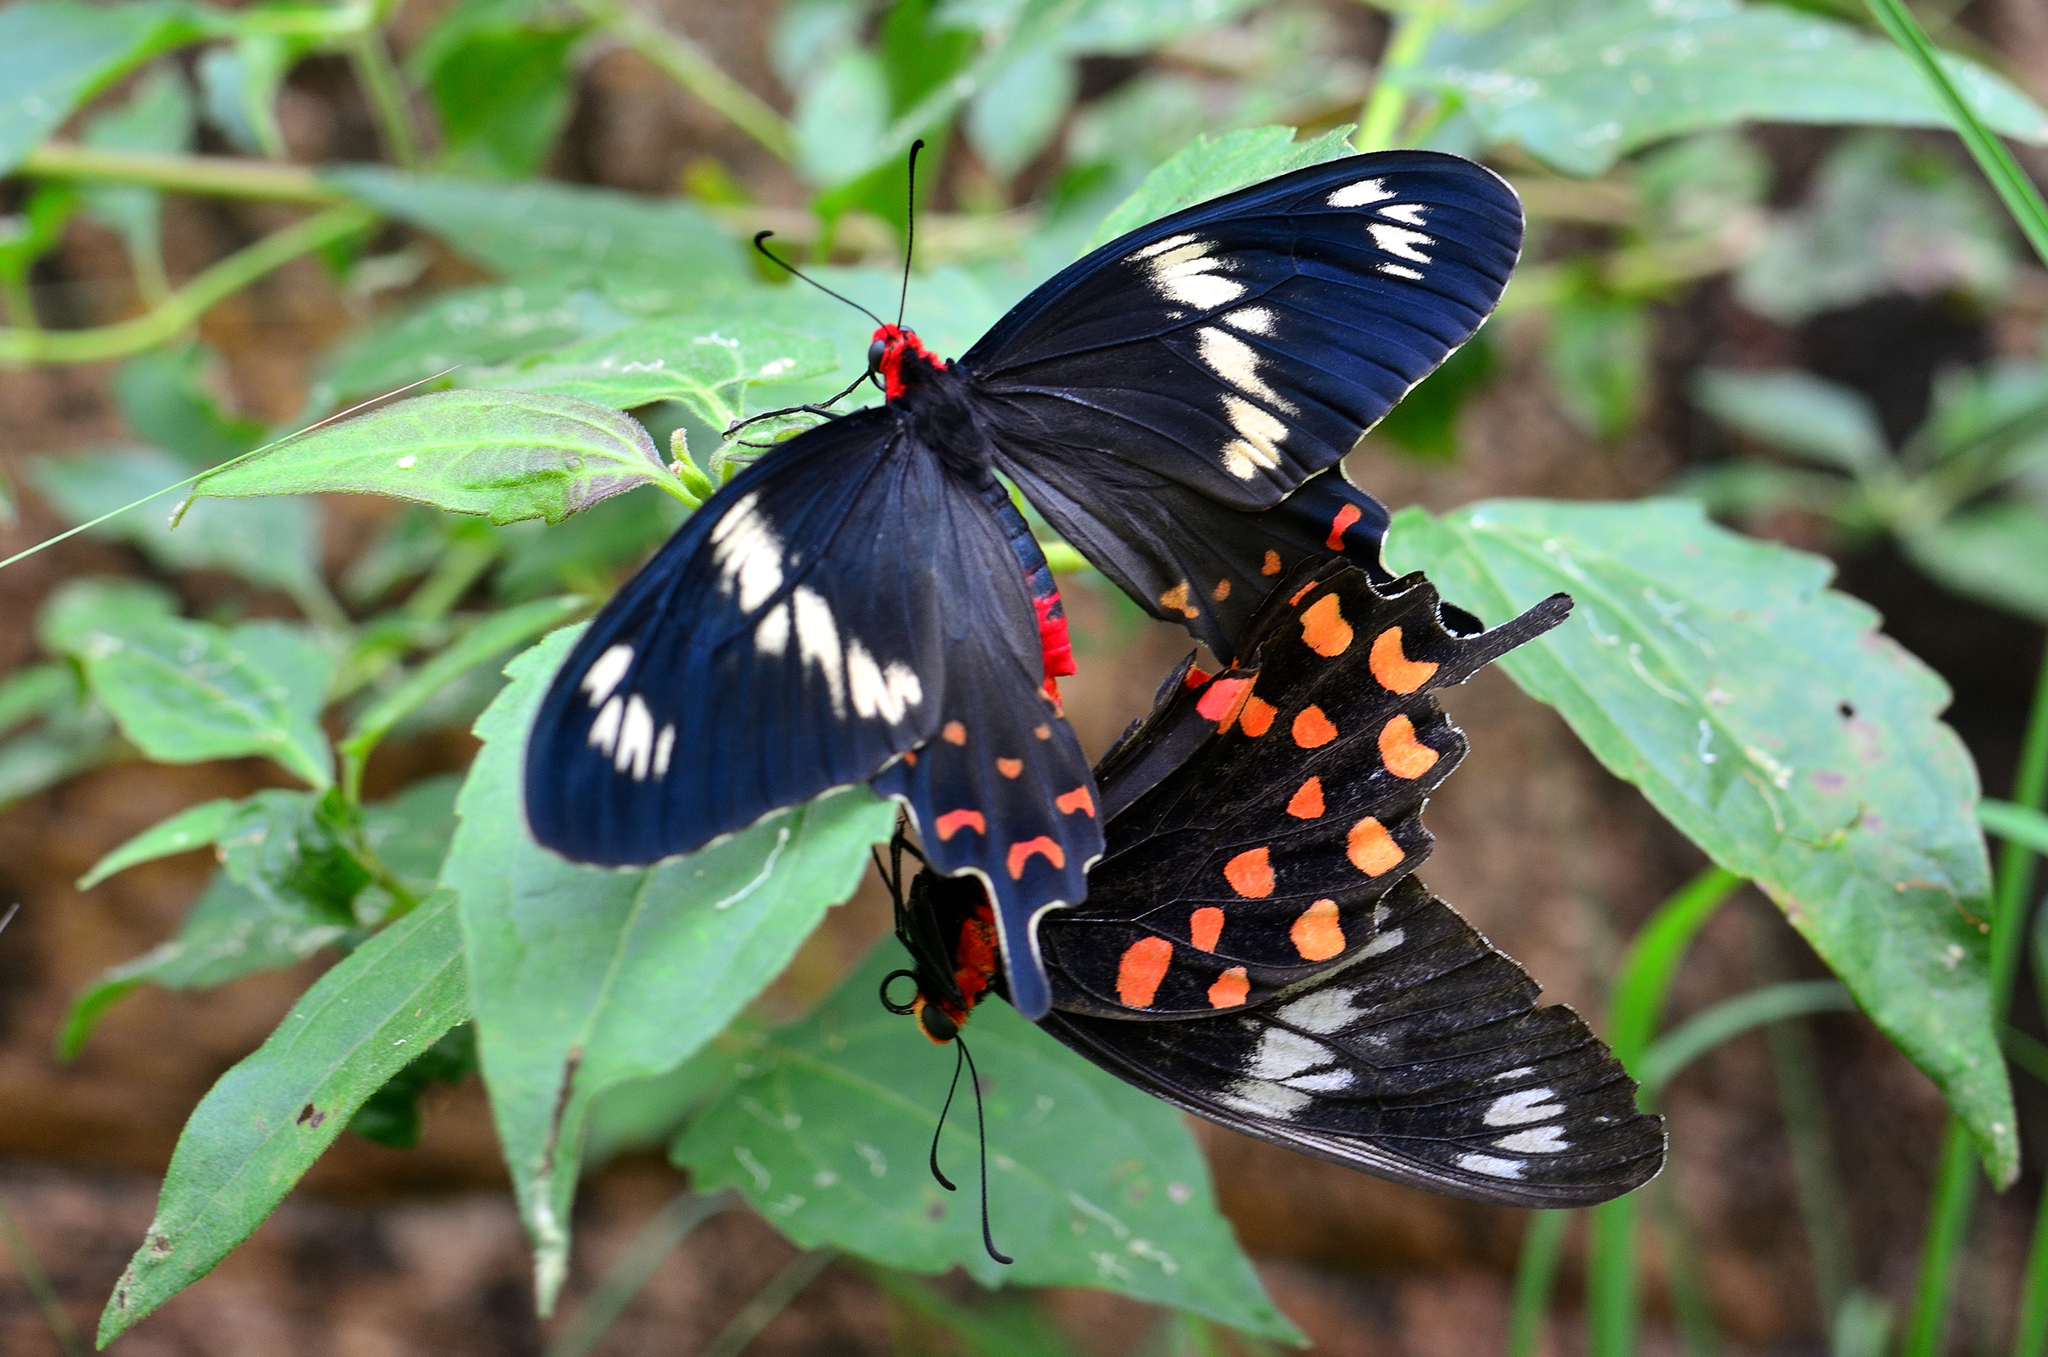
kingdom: Animalia
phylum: Arthropoda
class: Insecta
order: Lepidoptera
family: Papilionidae
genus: Pachliopta
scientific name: Pachliopta hector
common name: Crimson rose
